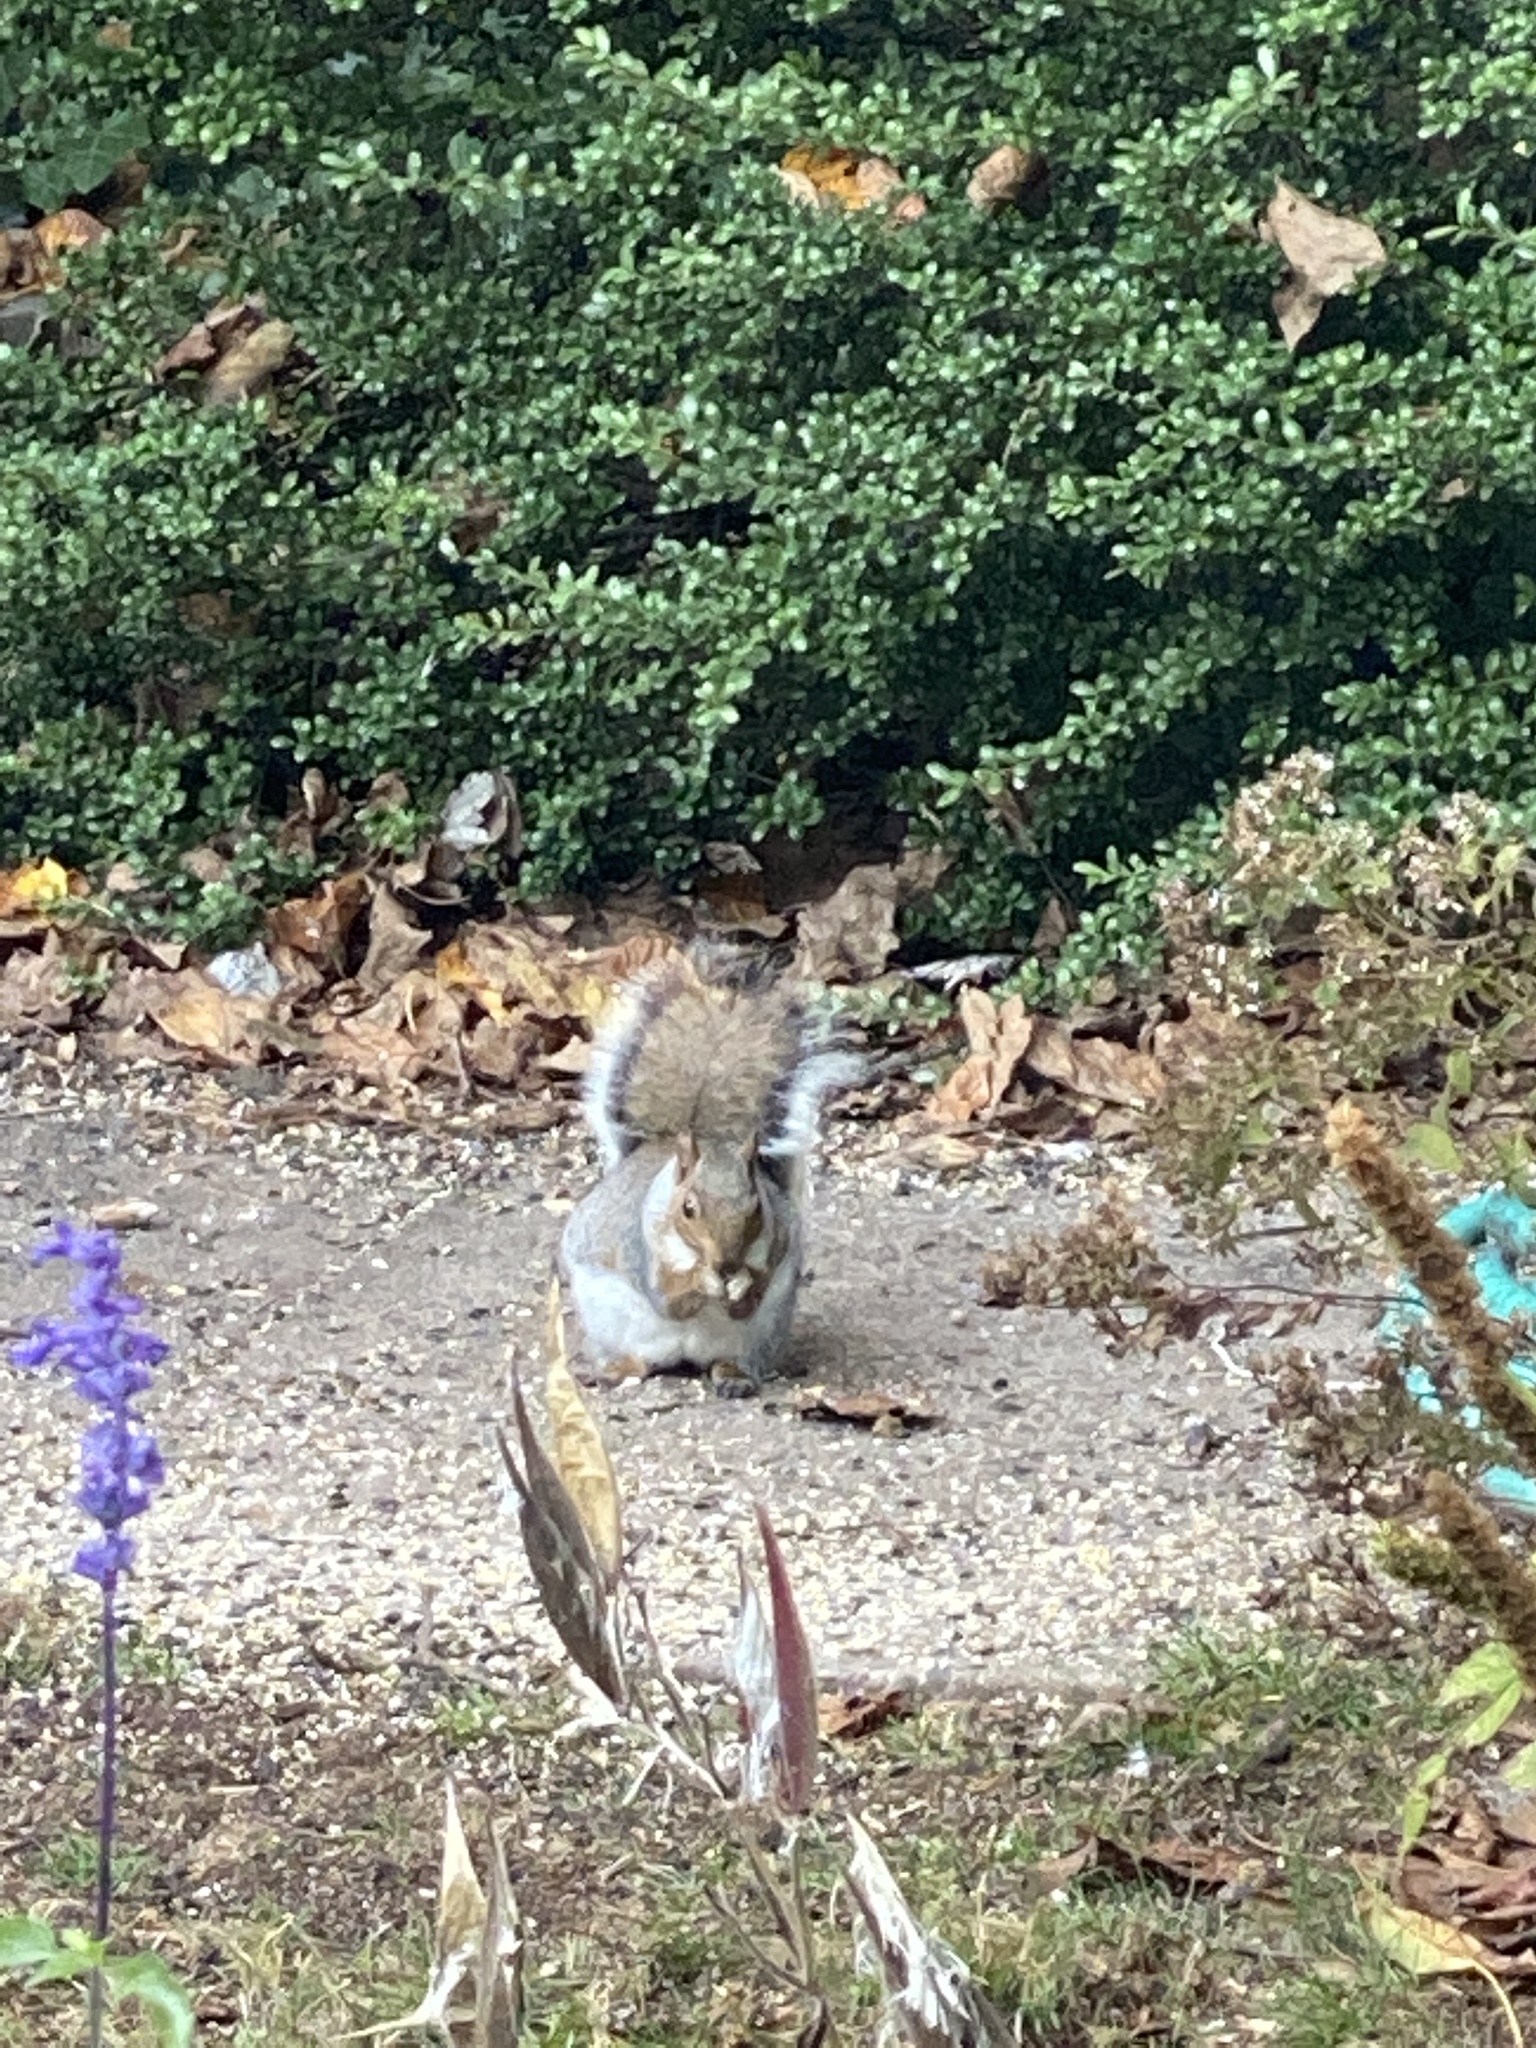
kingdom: Animalia
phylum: Chordata
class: Mammalia
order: Rodentia
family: Sciuridae
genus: Sciurus
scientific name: Sciurus carolinensis
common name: Eastern gray squirrel
